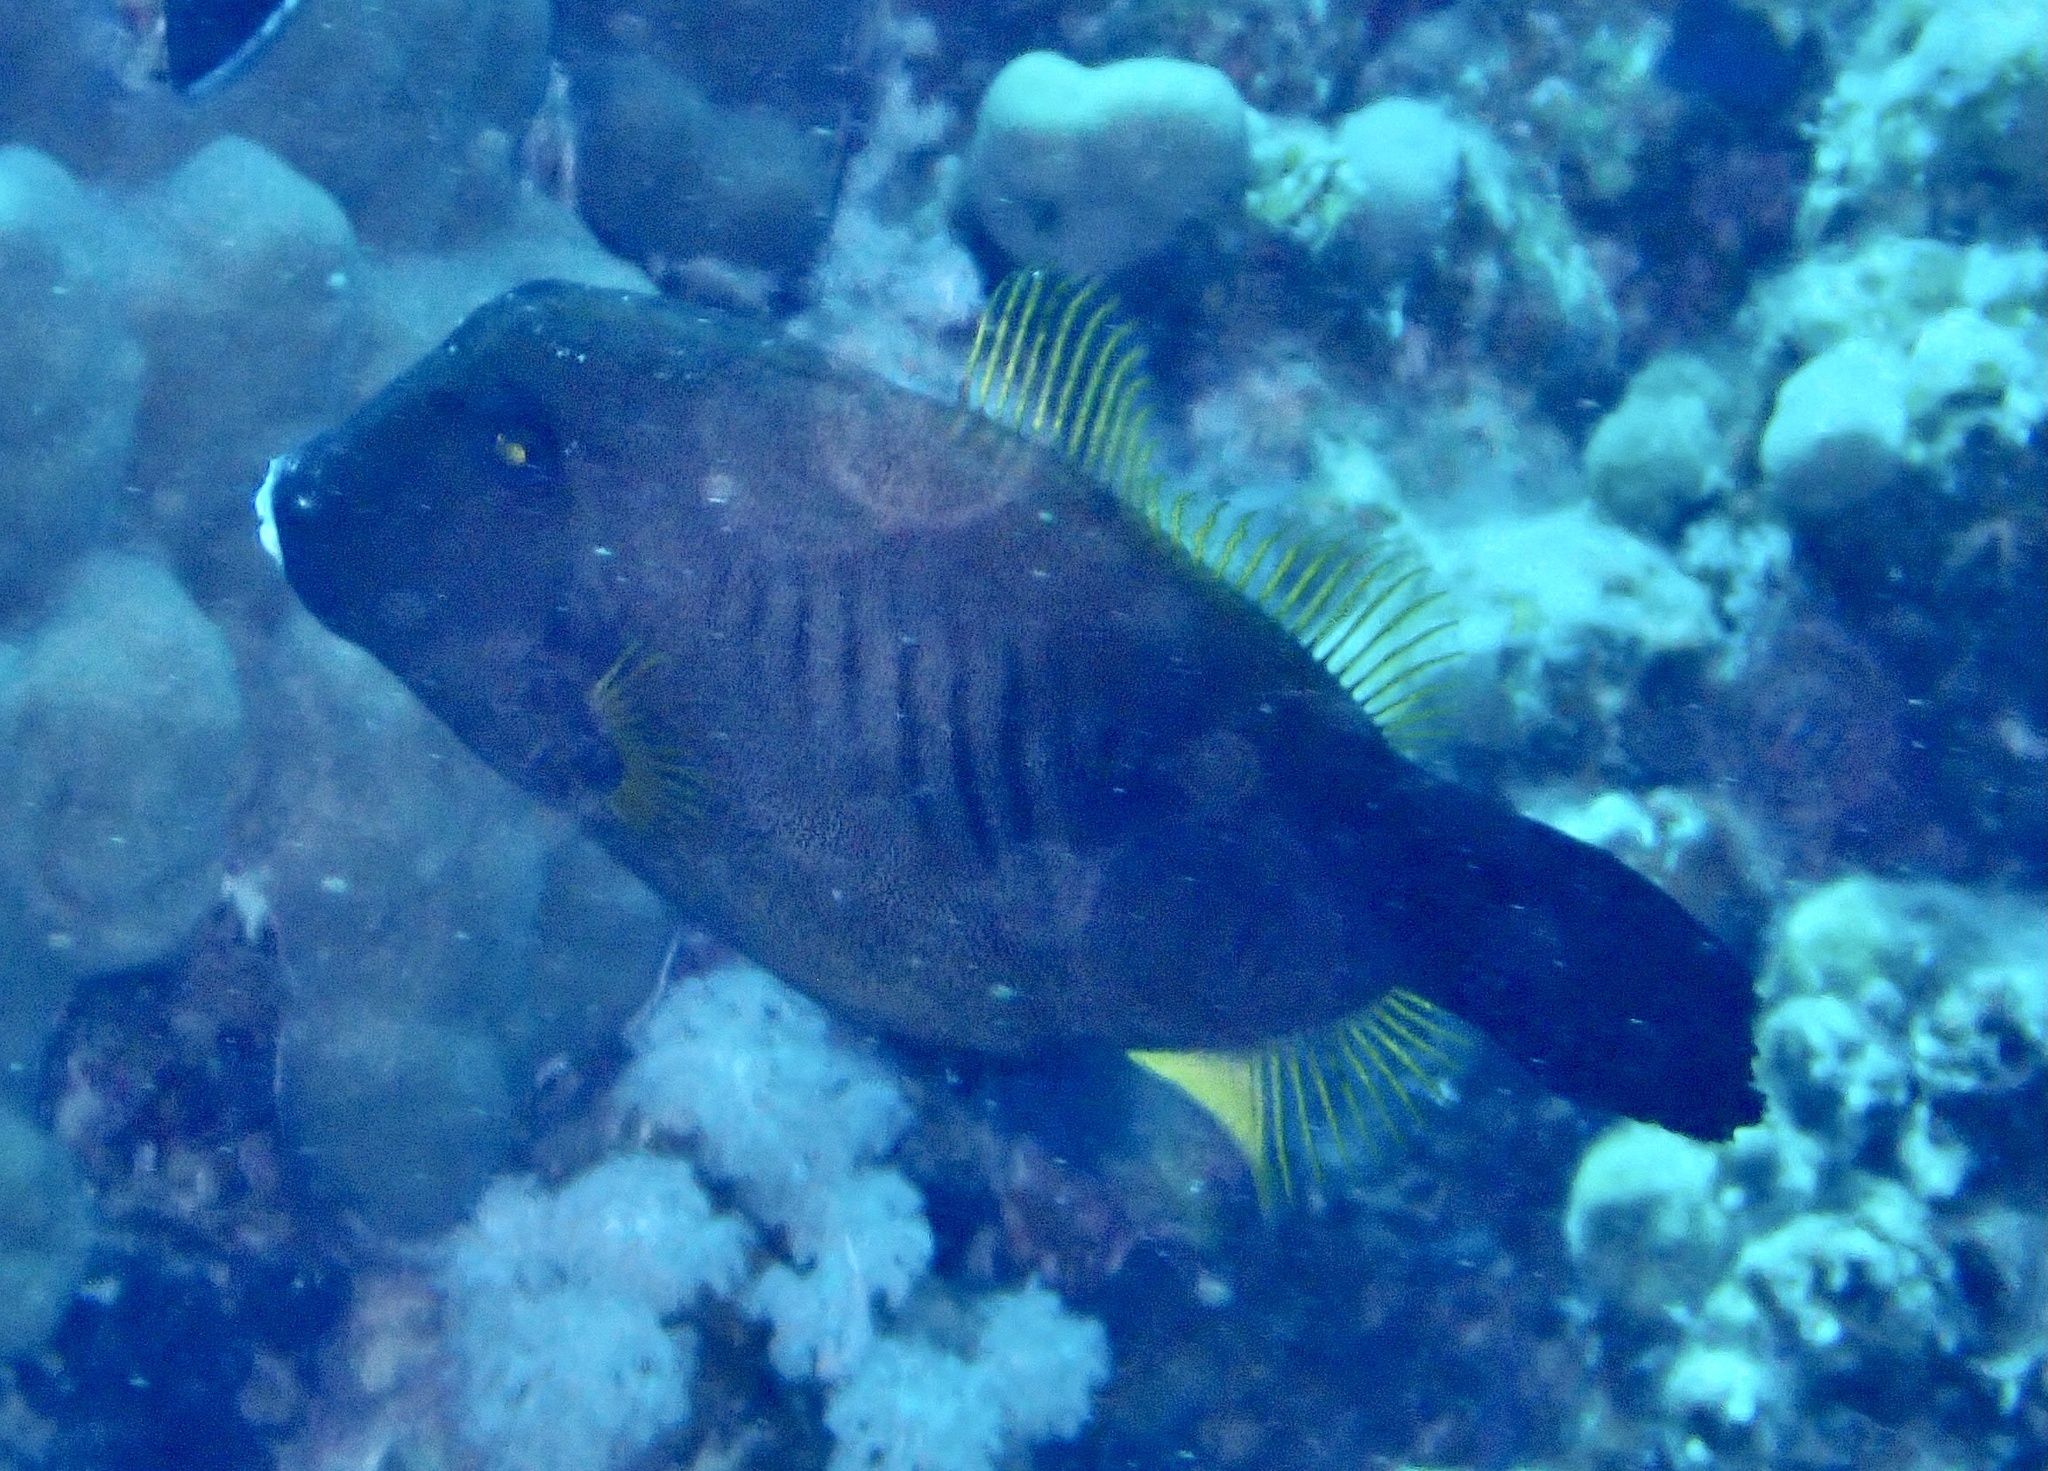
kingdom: Animalia
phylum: Chordata
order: Tetraodontiformes
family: Monacanthidae
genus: Amanses
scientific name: Amanses scopas
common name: Broom filefish
